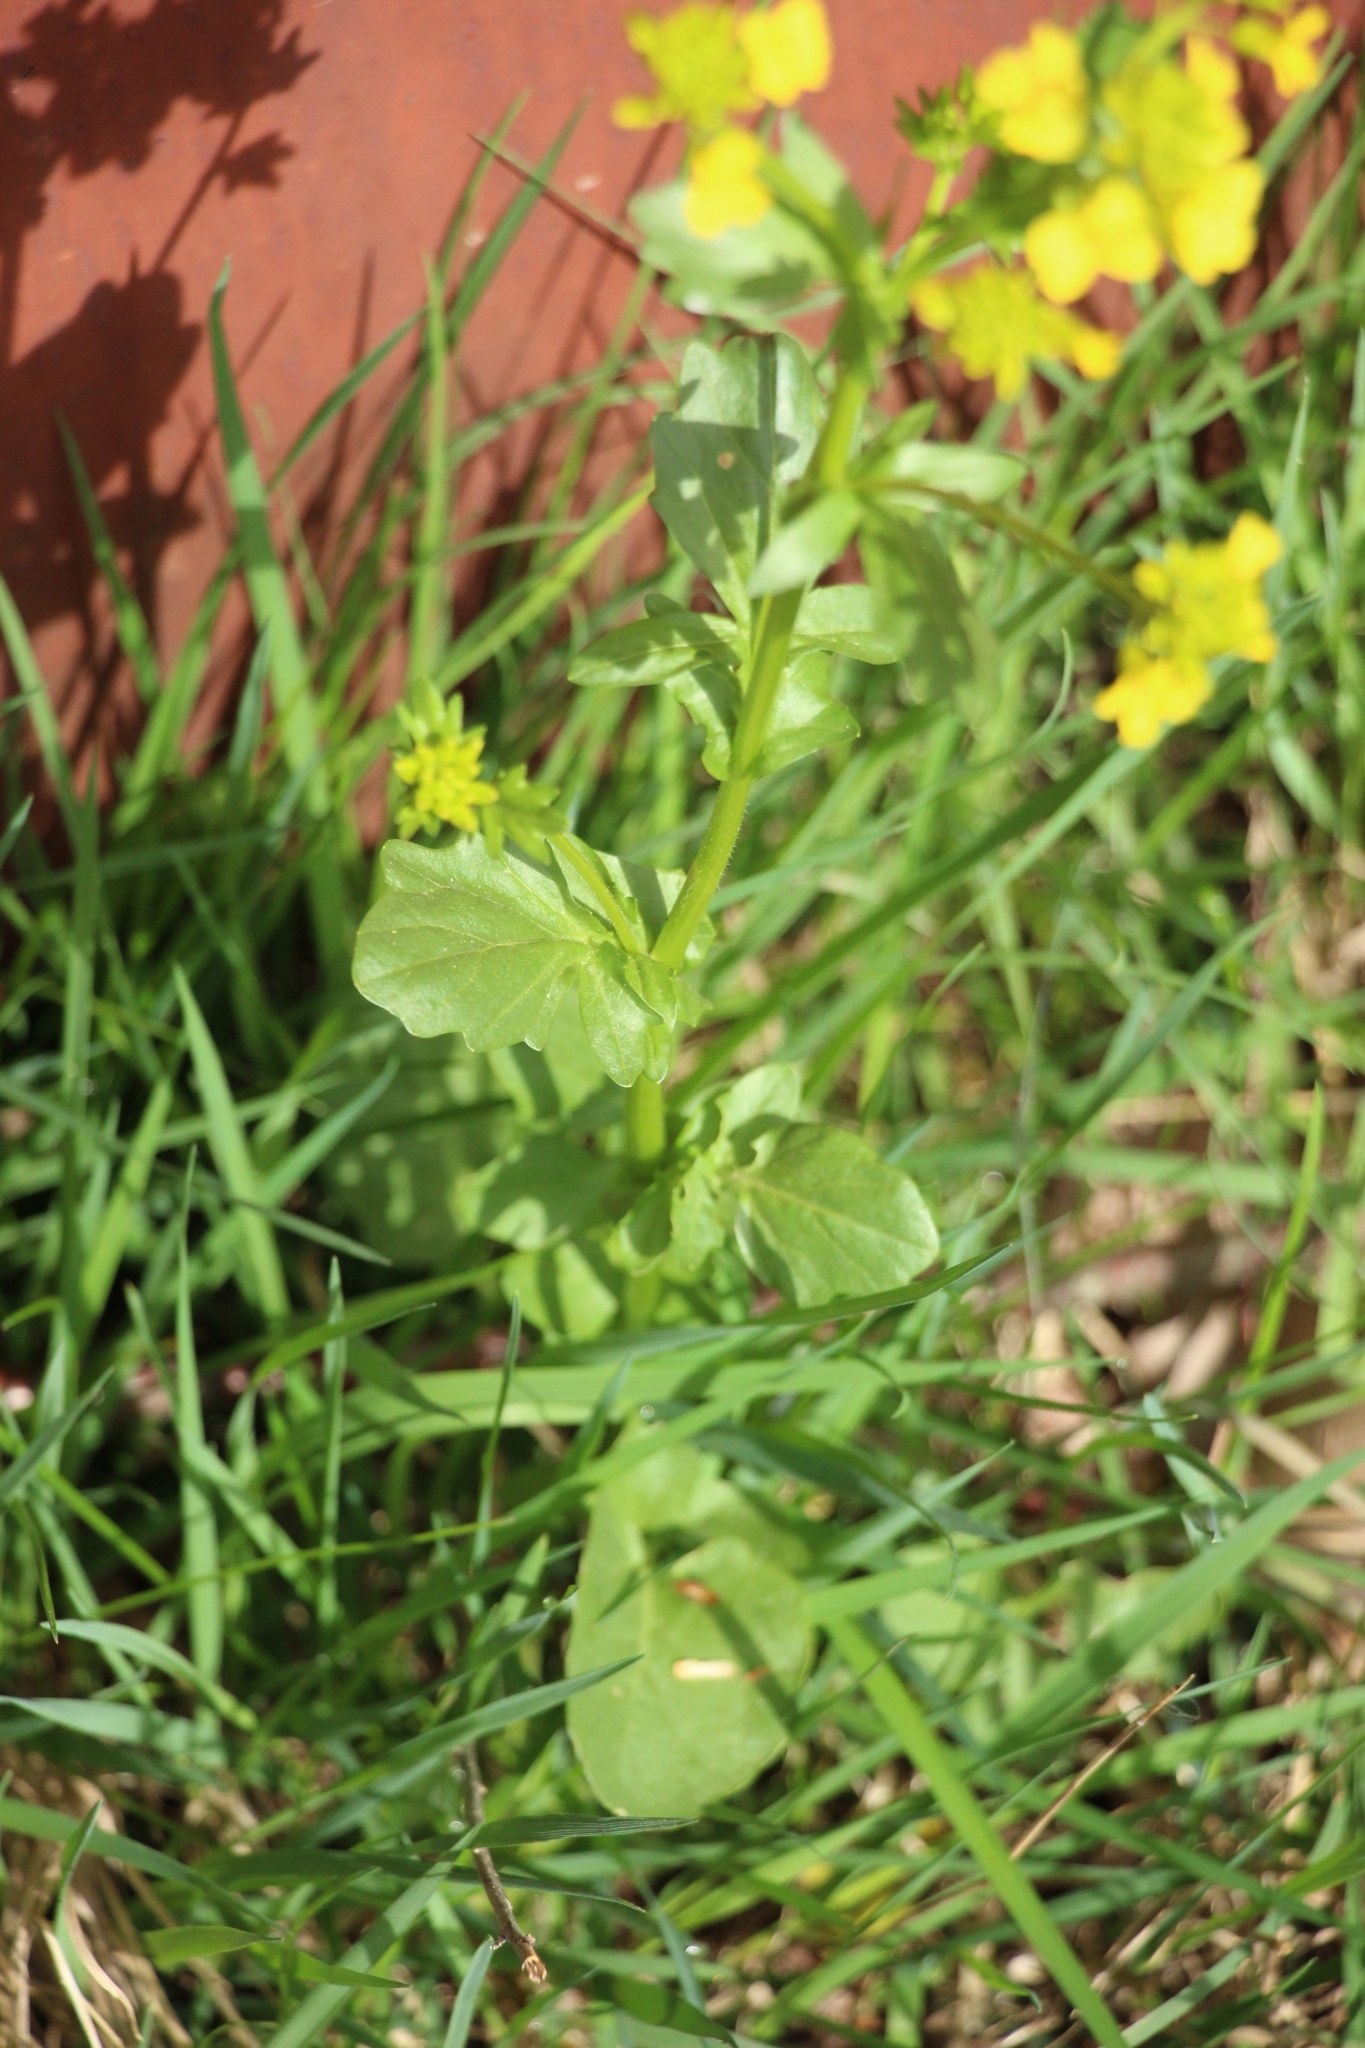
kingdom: Plantae
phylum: Tracheophyta
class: Magnoliopsida
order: Brassicales
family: Brassicaceae
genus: Barbarea
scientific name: Barbarea vulgaris
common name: Cressy-greens
